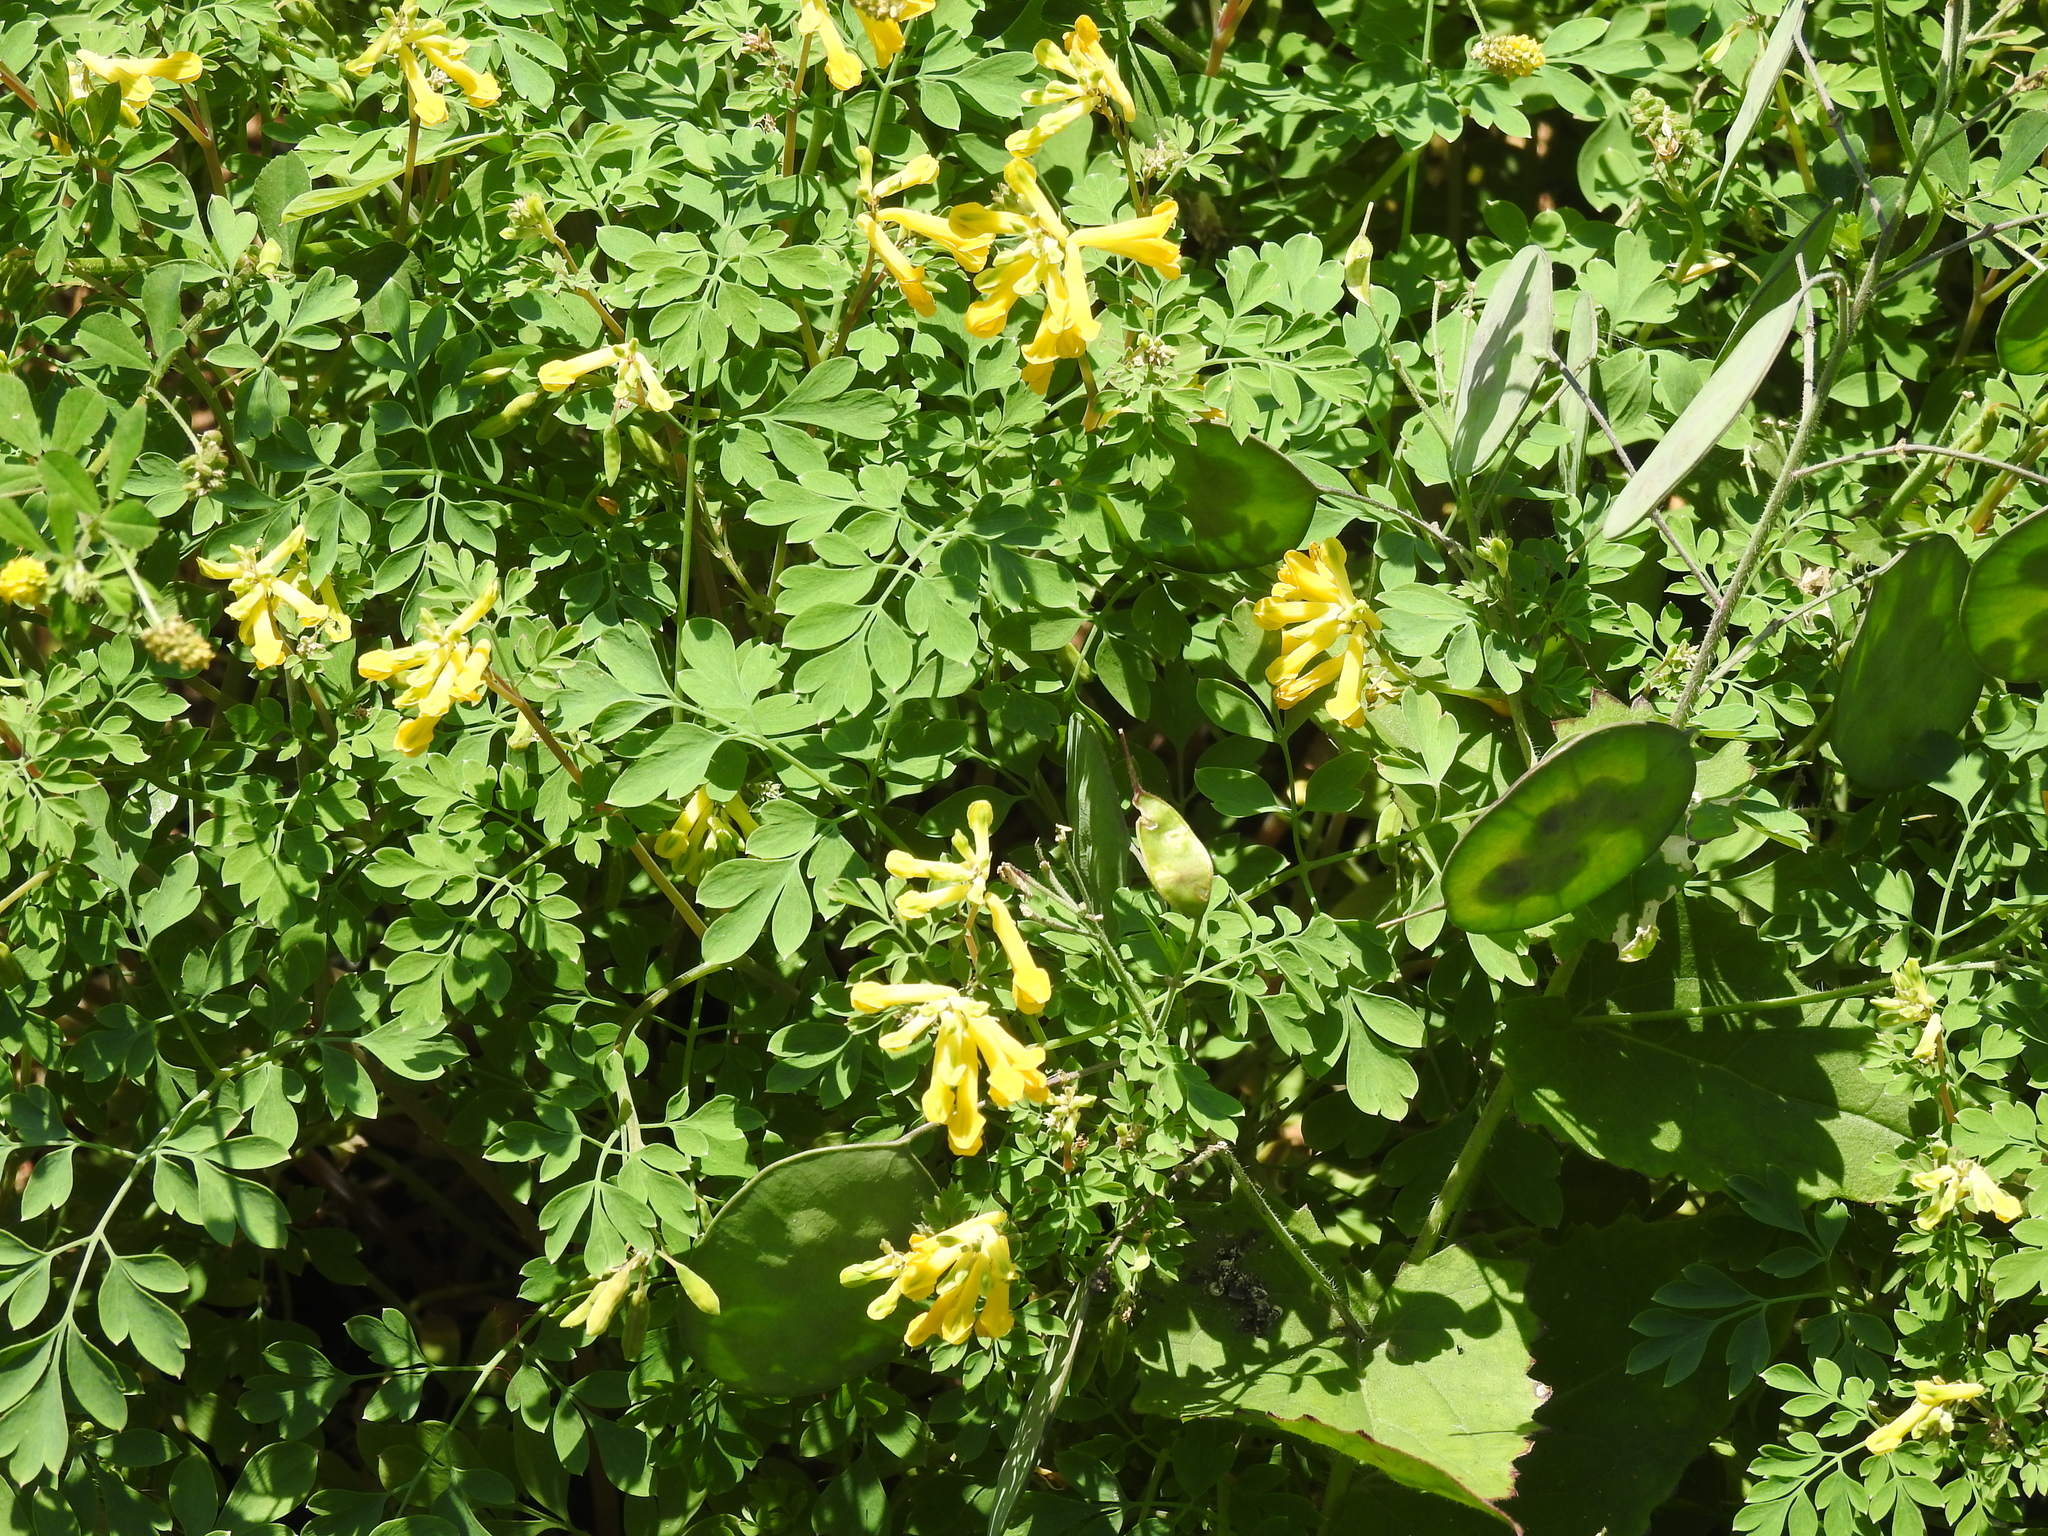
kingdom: Plantae
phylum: Tracheophyta
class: Magnoliopsida
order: Ranunculales
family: Papaveraceae
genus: Pseudofumaria
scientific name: Pseudofumaria lutea
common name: Yellow corydalis
